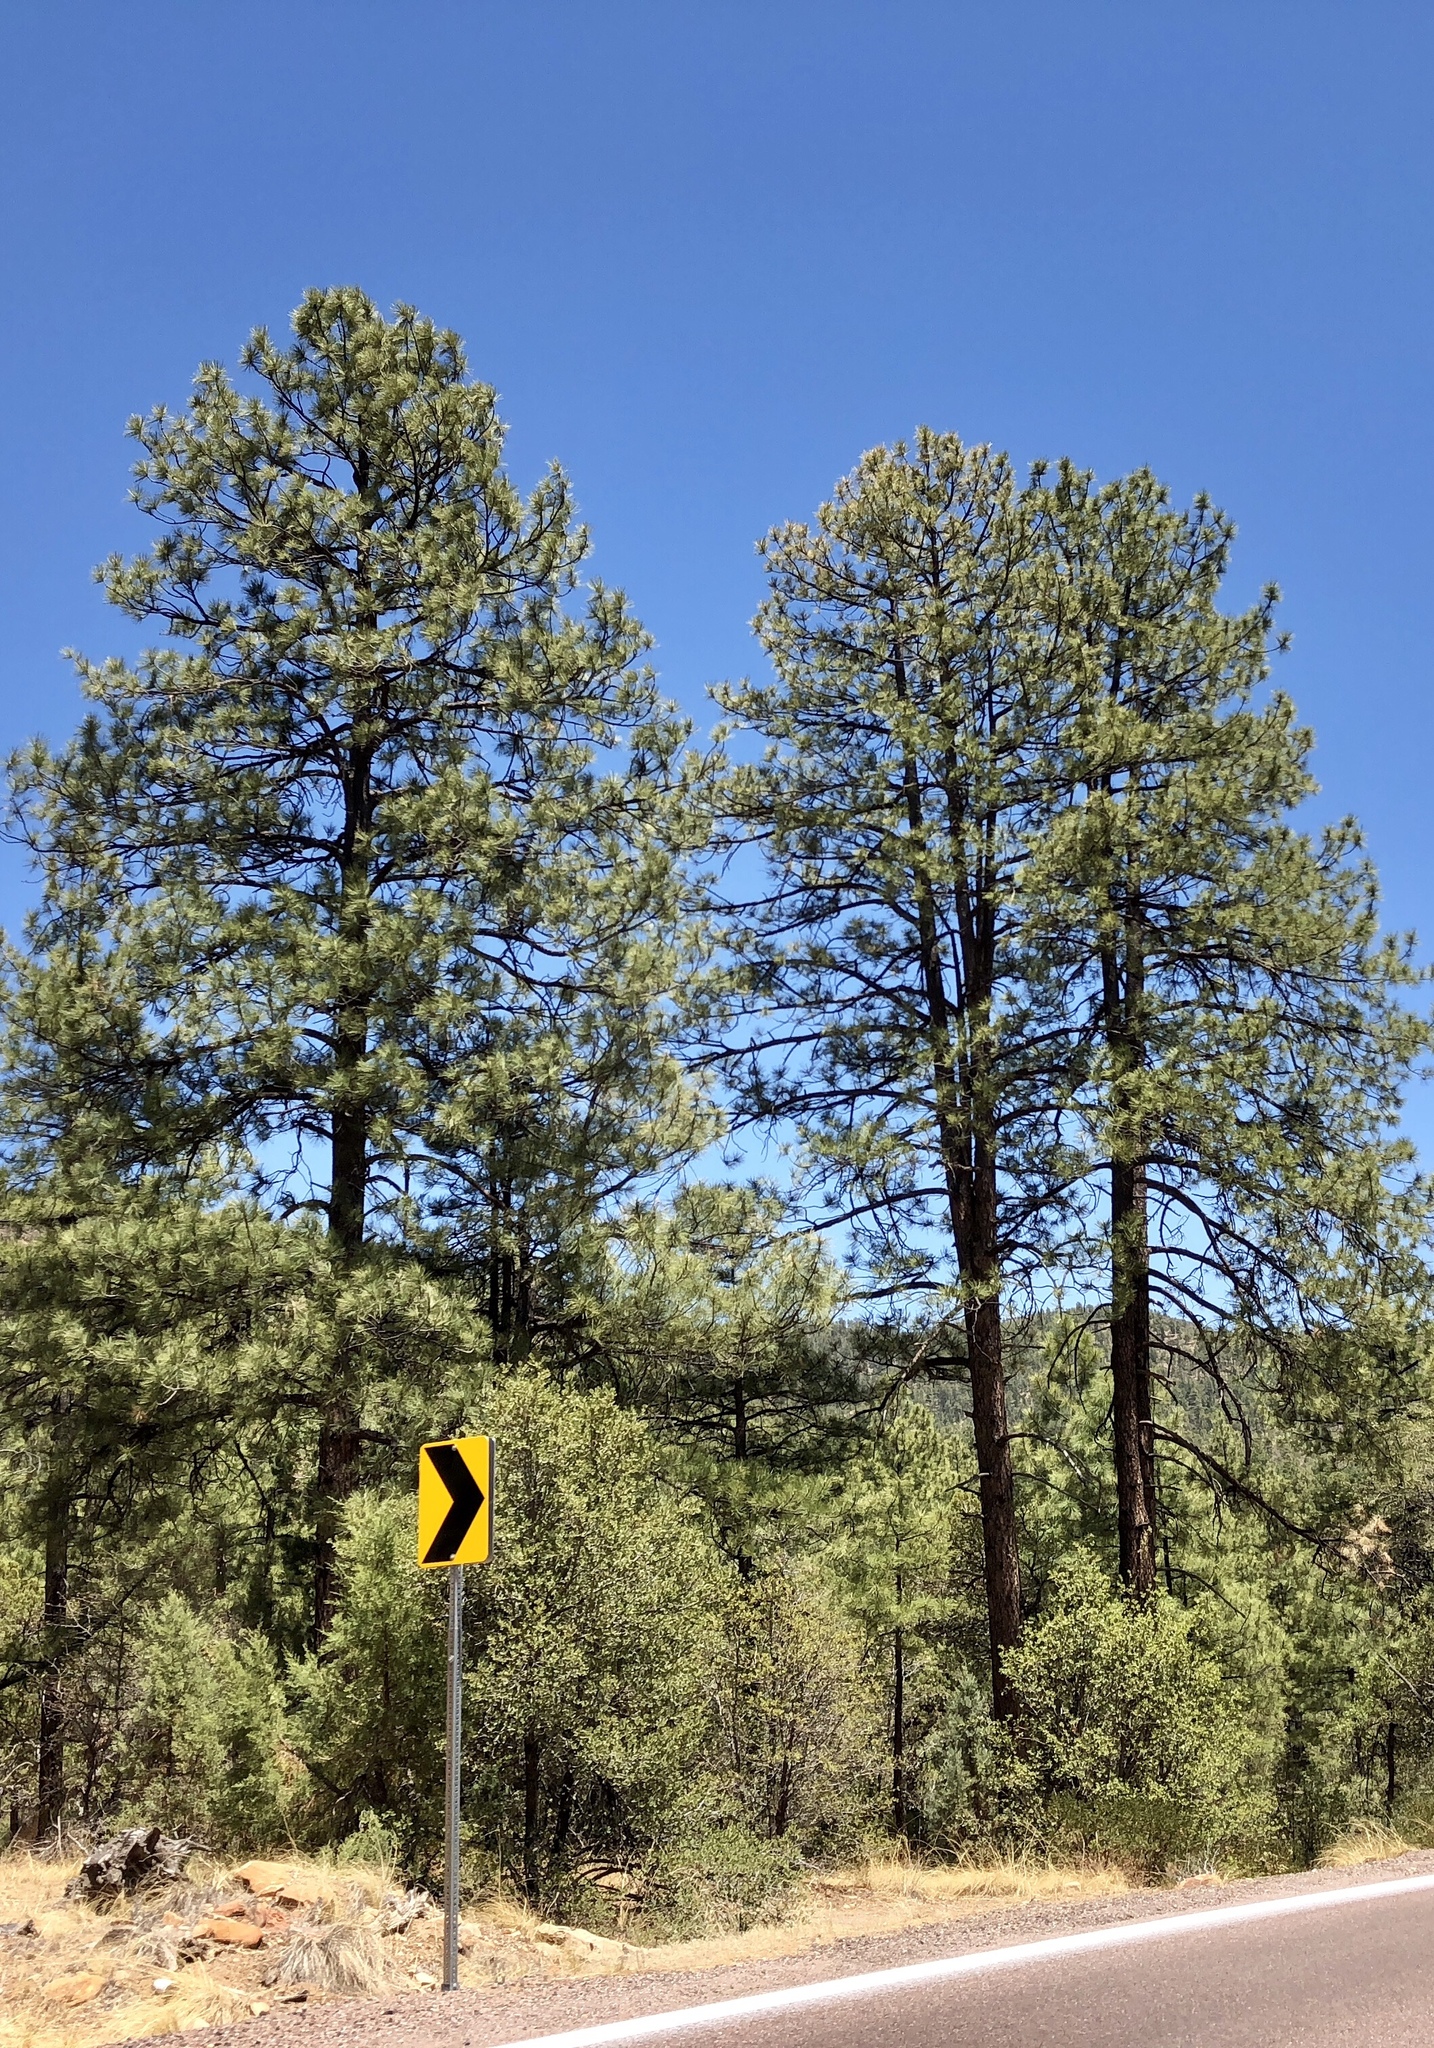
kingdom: Plantae
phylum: Tracheophyta
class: Pinopsida
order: Pinales
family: Pinaceae
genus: Pinus
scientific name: Pinus ponderosa
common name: Western yellow-pine
